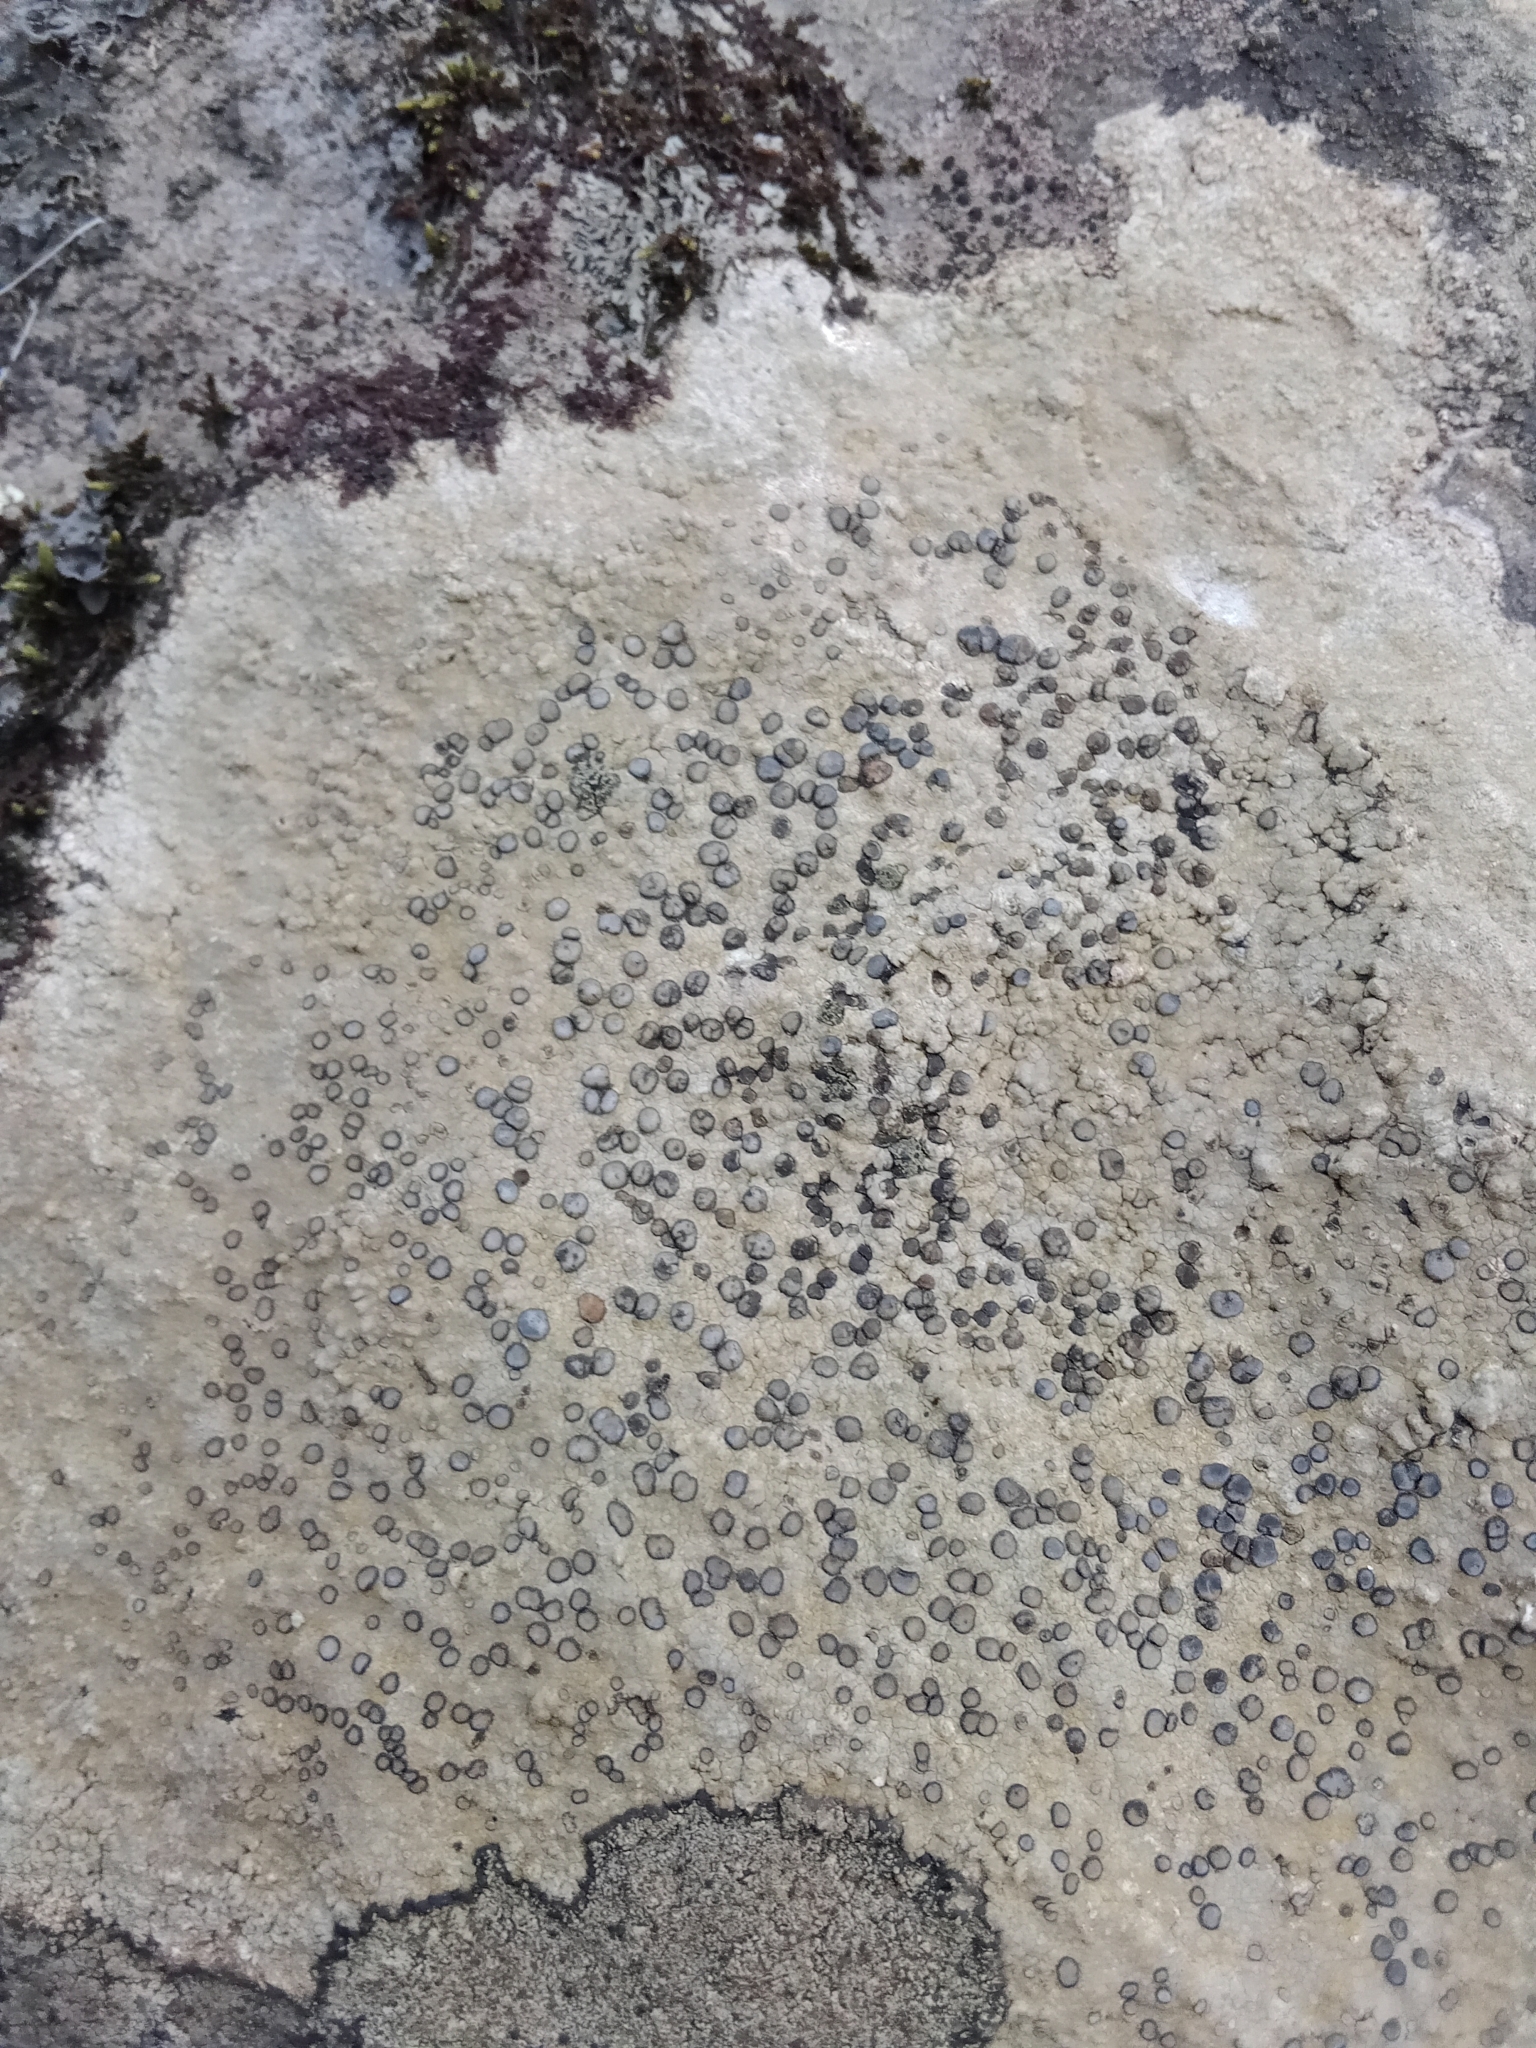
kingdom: Fungi
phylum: Ascomycota
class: Lecanoromycetes
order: Lecideales
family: Lecideaceae
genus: Porpidia
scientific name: Porpidia albocaerulescens
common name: Smokey-eyed boulder lichen
